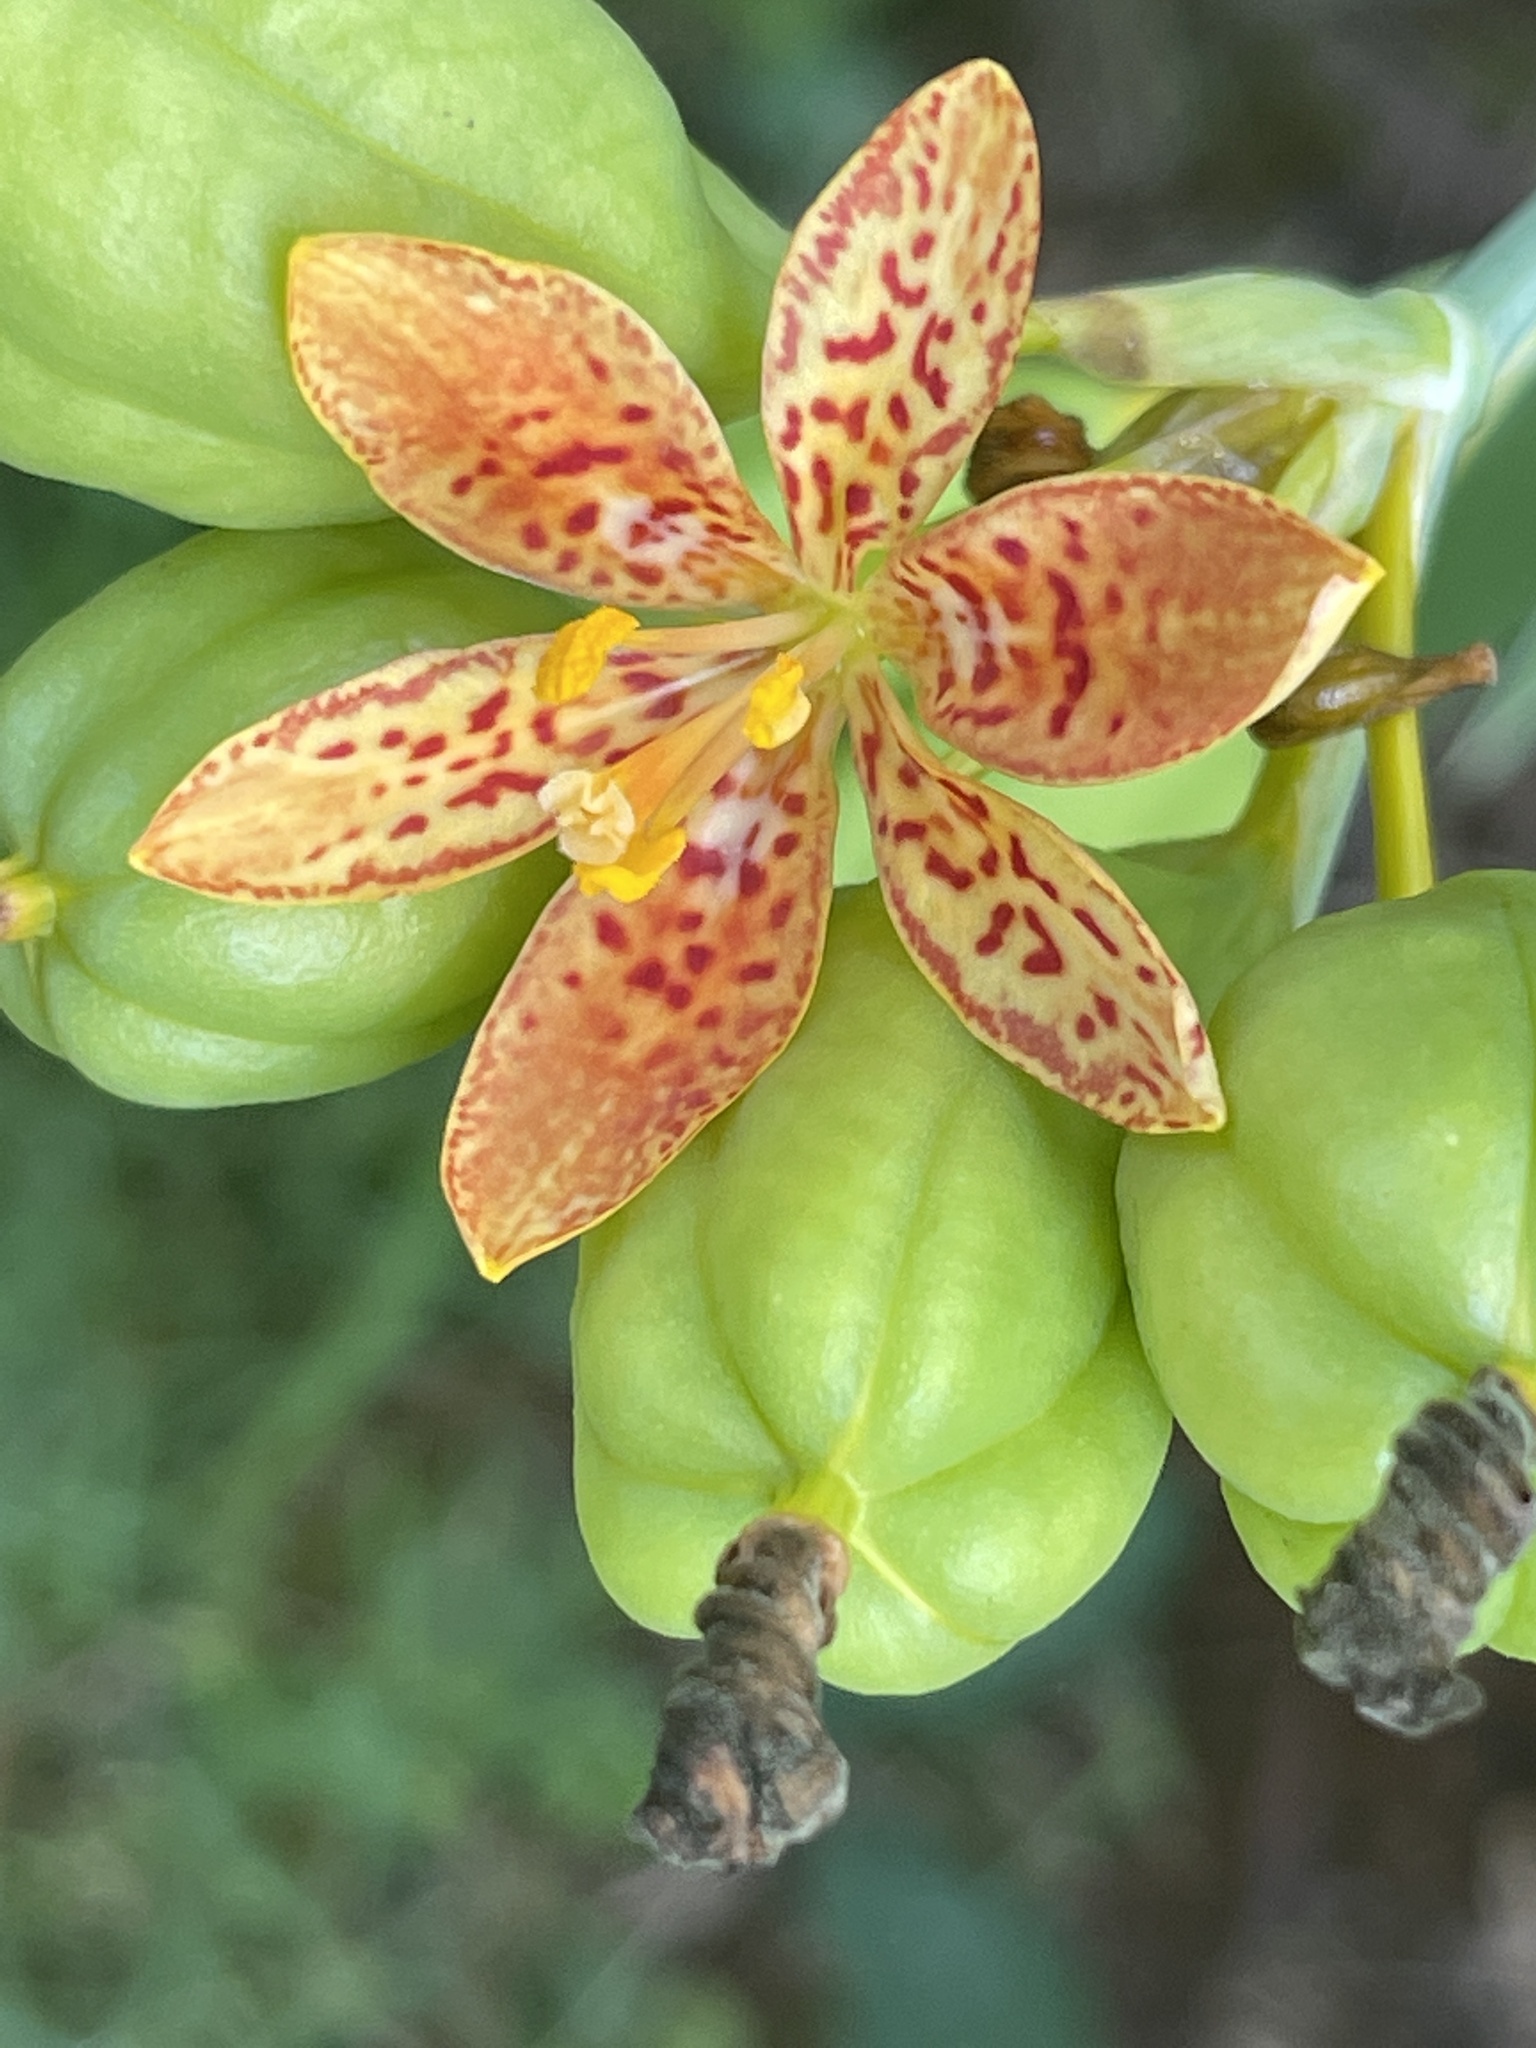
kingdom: Plantae
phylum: Tracheophyta
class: Liliopsida
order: Asparagales
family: Iridaceae
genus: Iris
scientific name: Iris domestica
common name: Belamcanda
